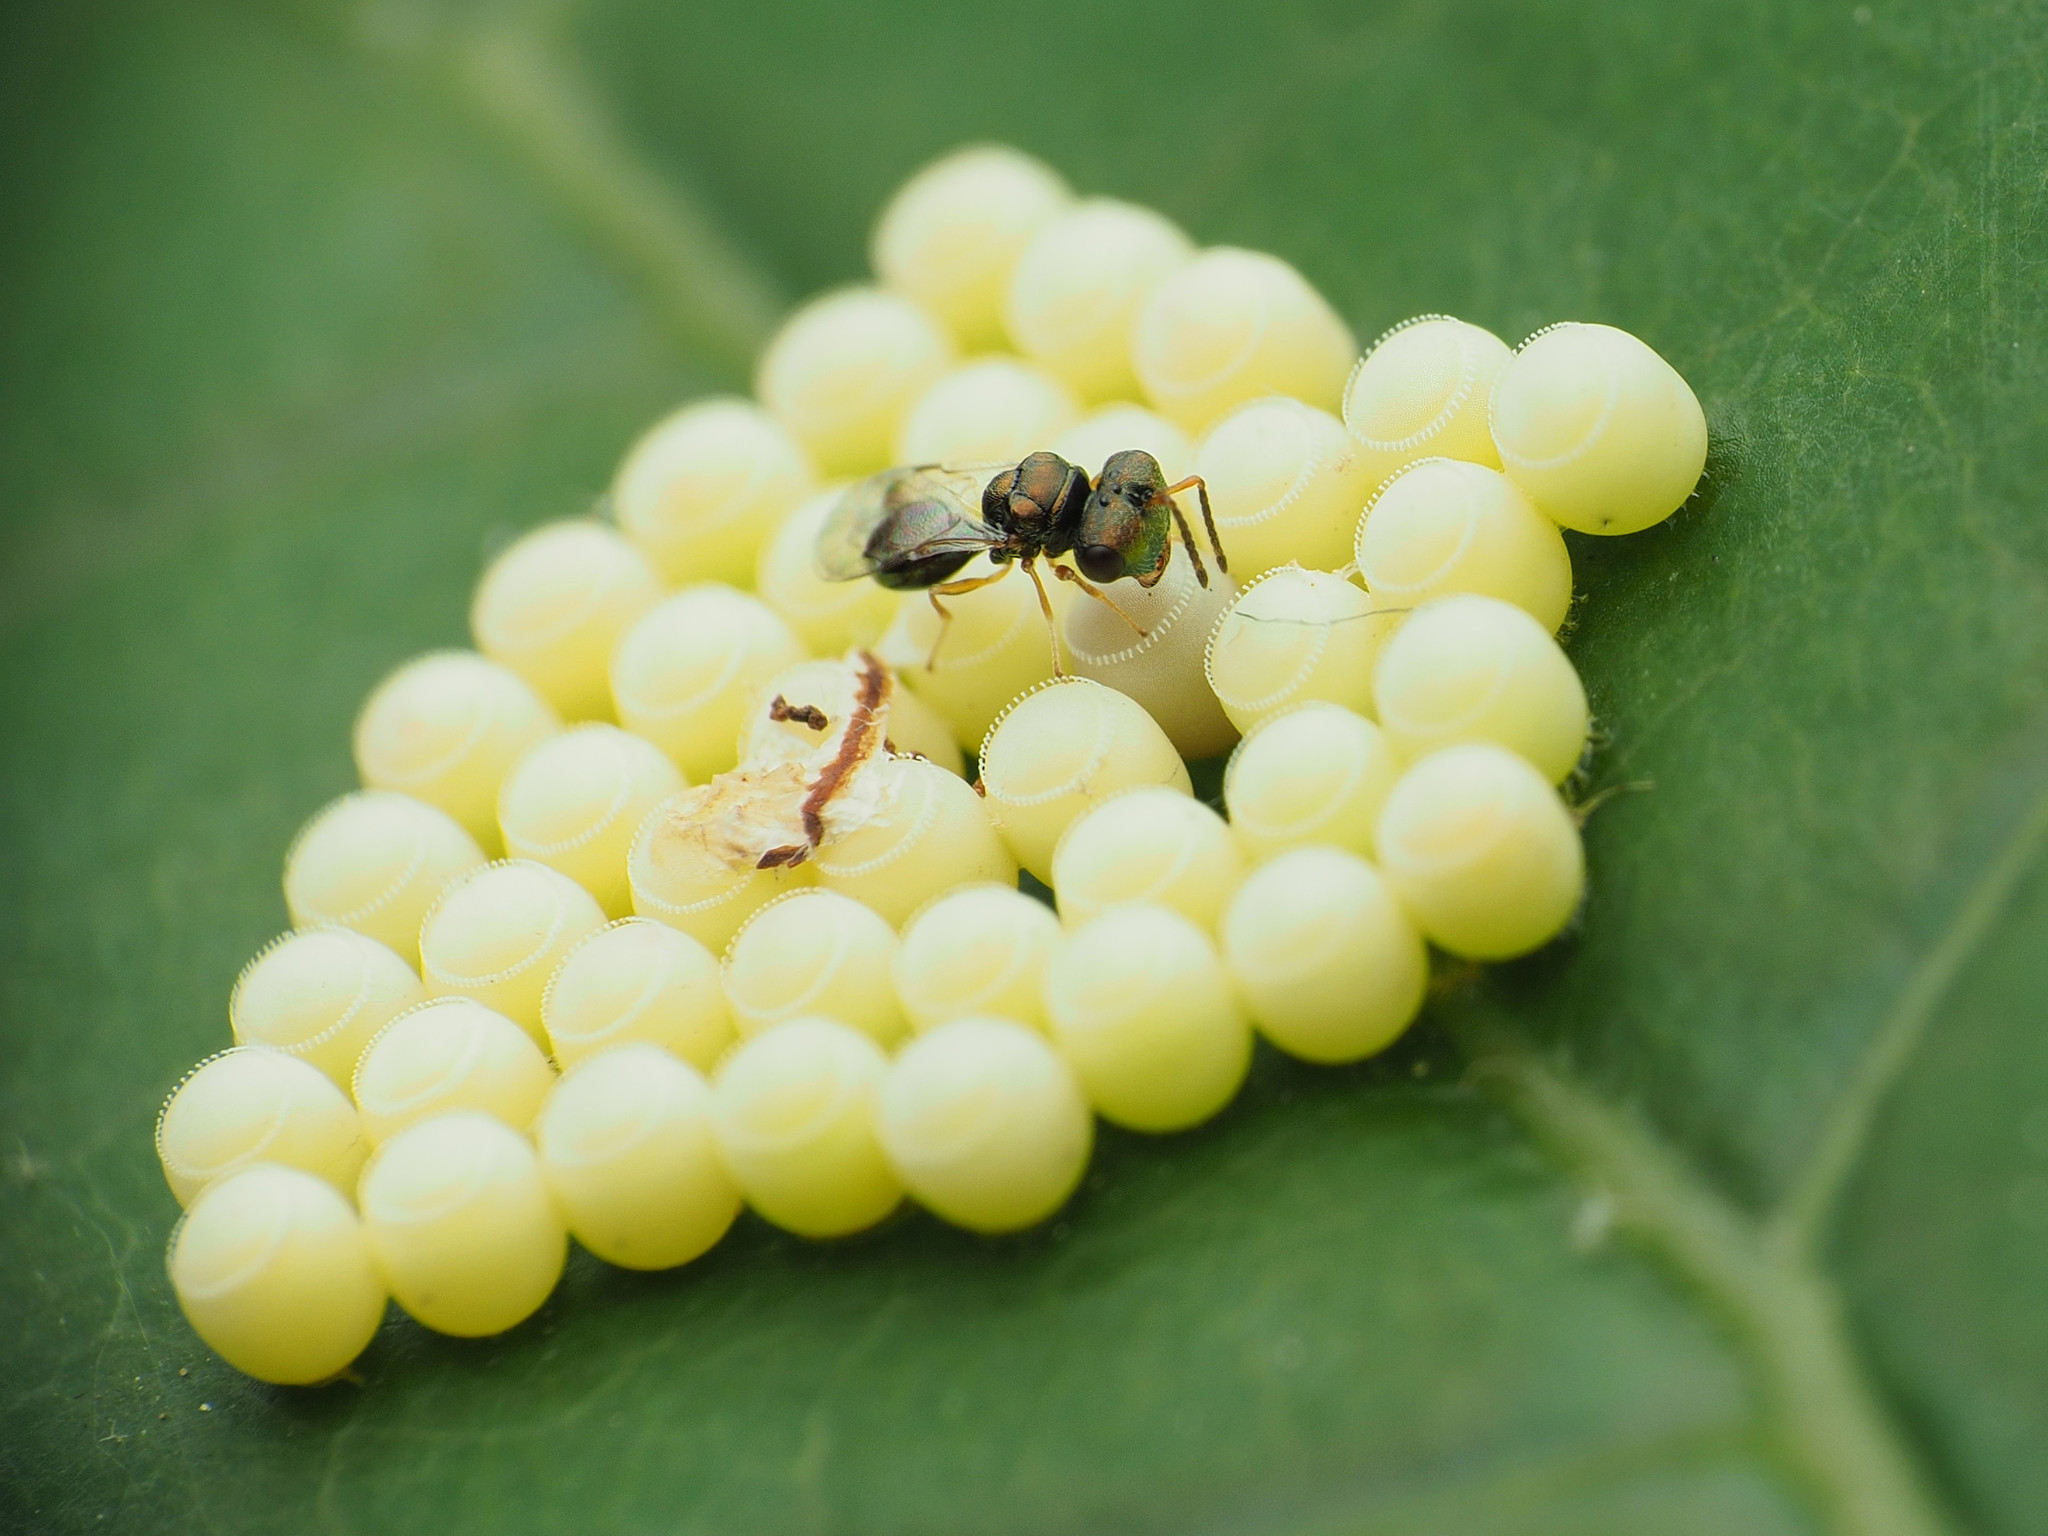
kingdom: Animalia
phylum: Arthropoda
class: Insecta
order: Hymenoptera
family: Pteromalidae
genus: Acroclisoides
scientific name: Acroclisoides sinicus
